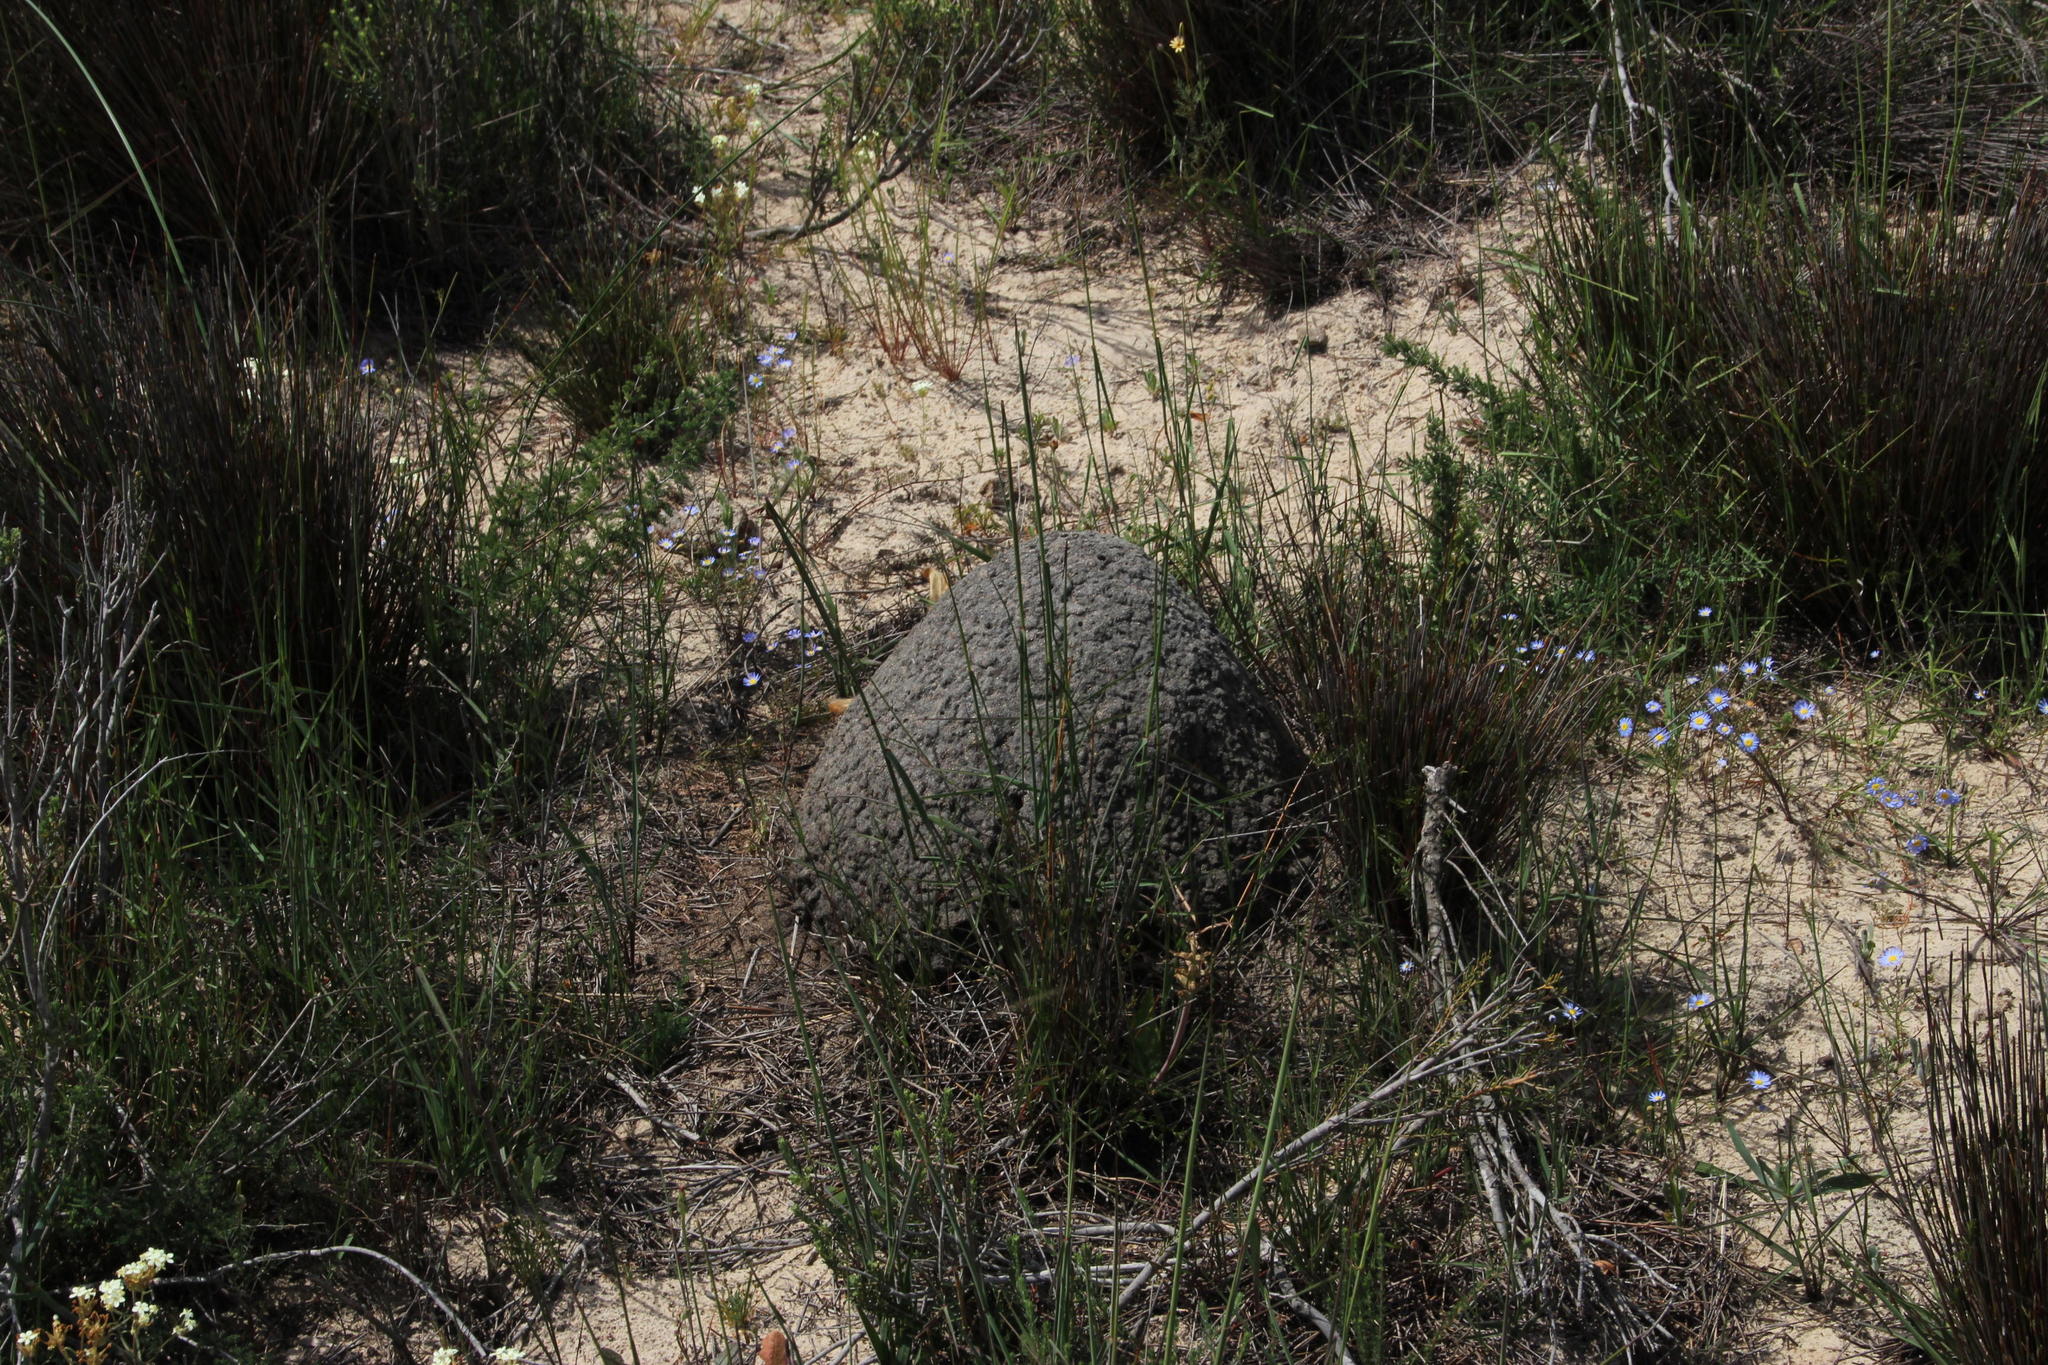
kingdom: Animalia
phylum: Arthropoda
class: Insecta
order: Blattodea
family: Termitidae
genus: Amitermes
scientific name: Amitermes hastatus
